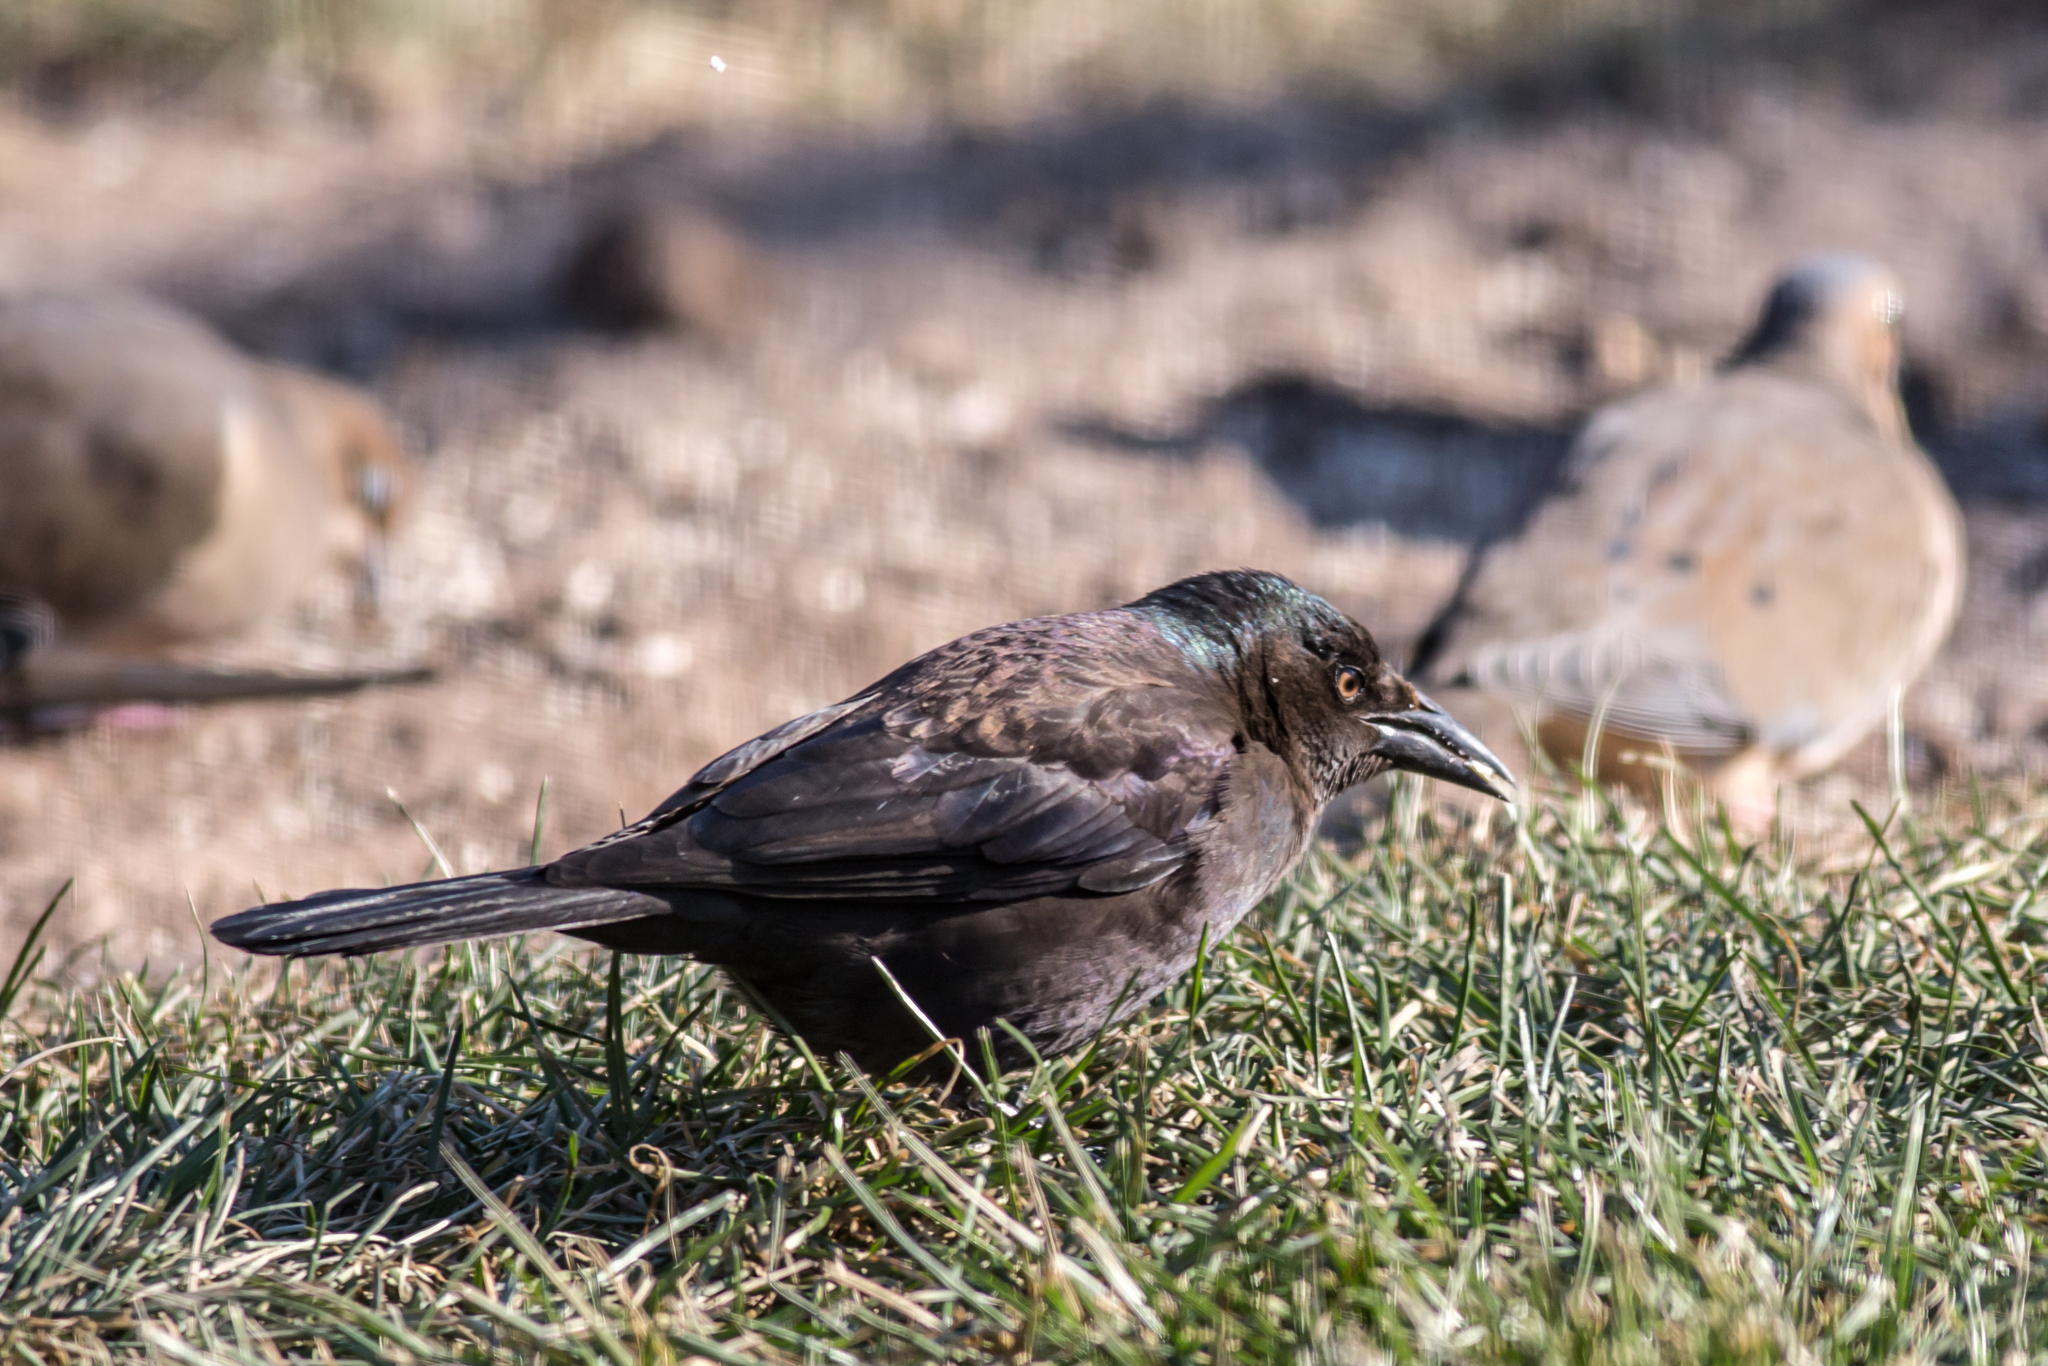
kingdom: Animalia
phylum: Chordata
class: Aves
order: Passeriformes
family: Icteridae
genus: Quiscalus
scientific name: Quiscalus quiscula
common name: Common grackle
